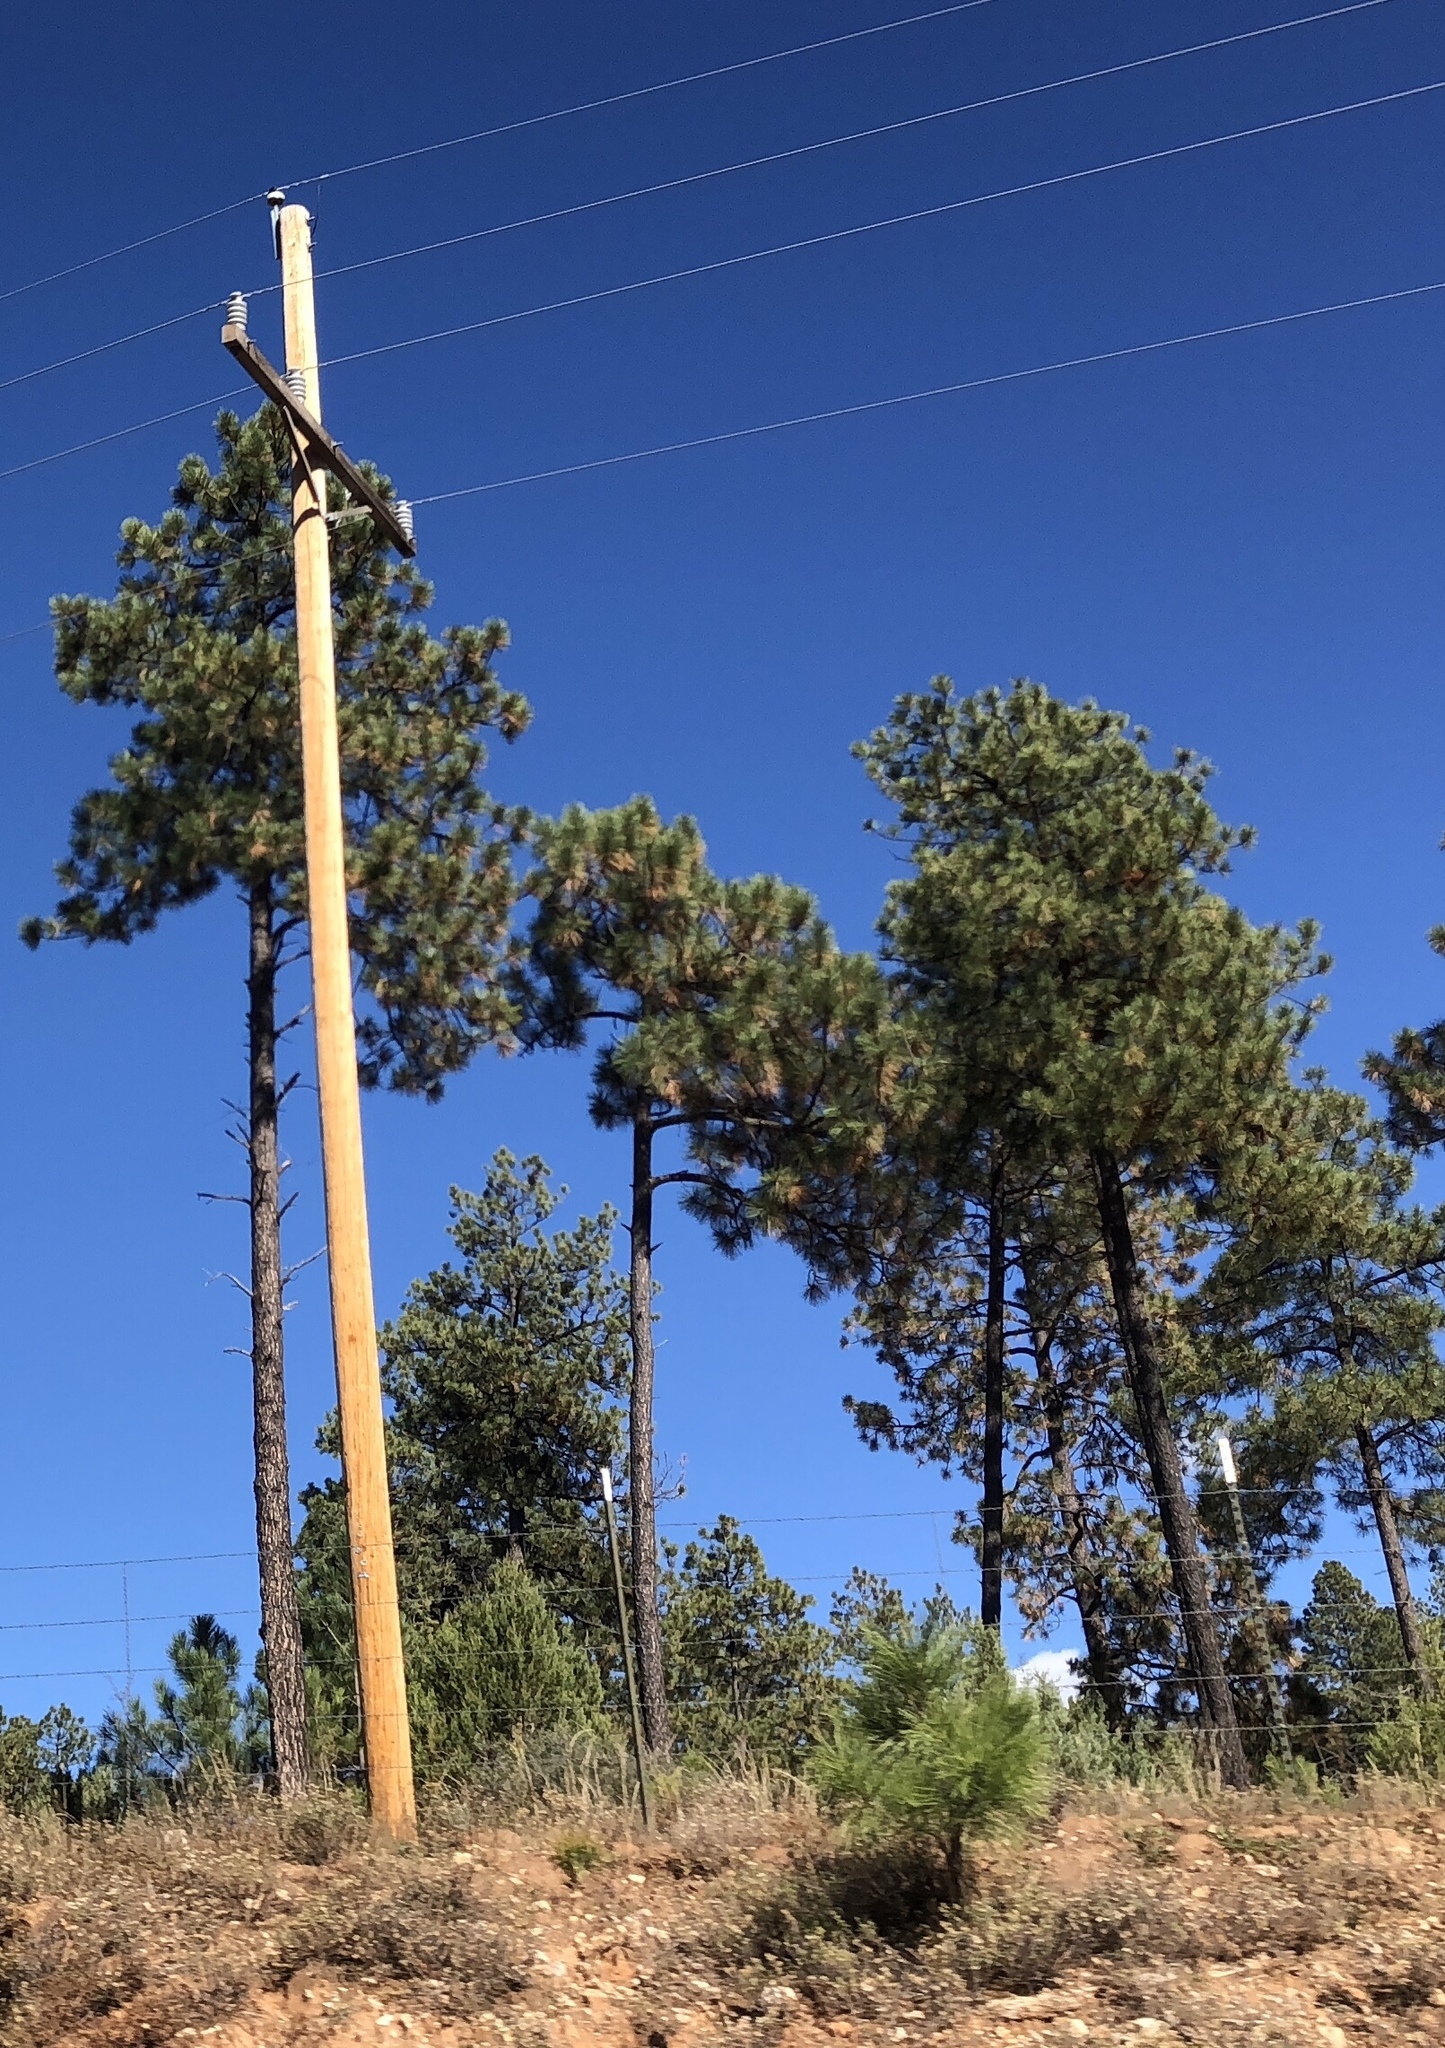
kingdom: Plantae
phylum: Tracheophyta
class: Pinopsida
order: Pinales
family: Pinaceae
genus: Pinus
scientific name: Pinus ponderosa
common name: Western yellow-pine
